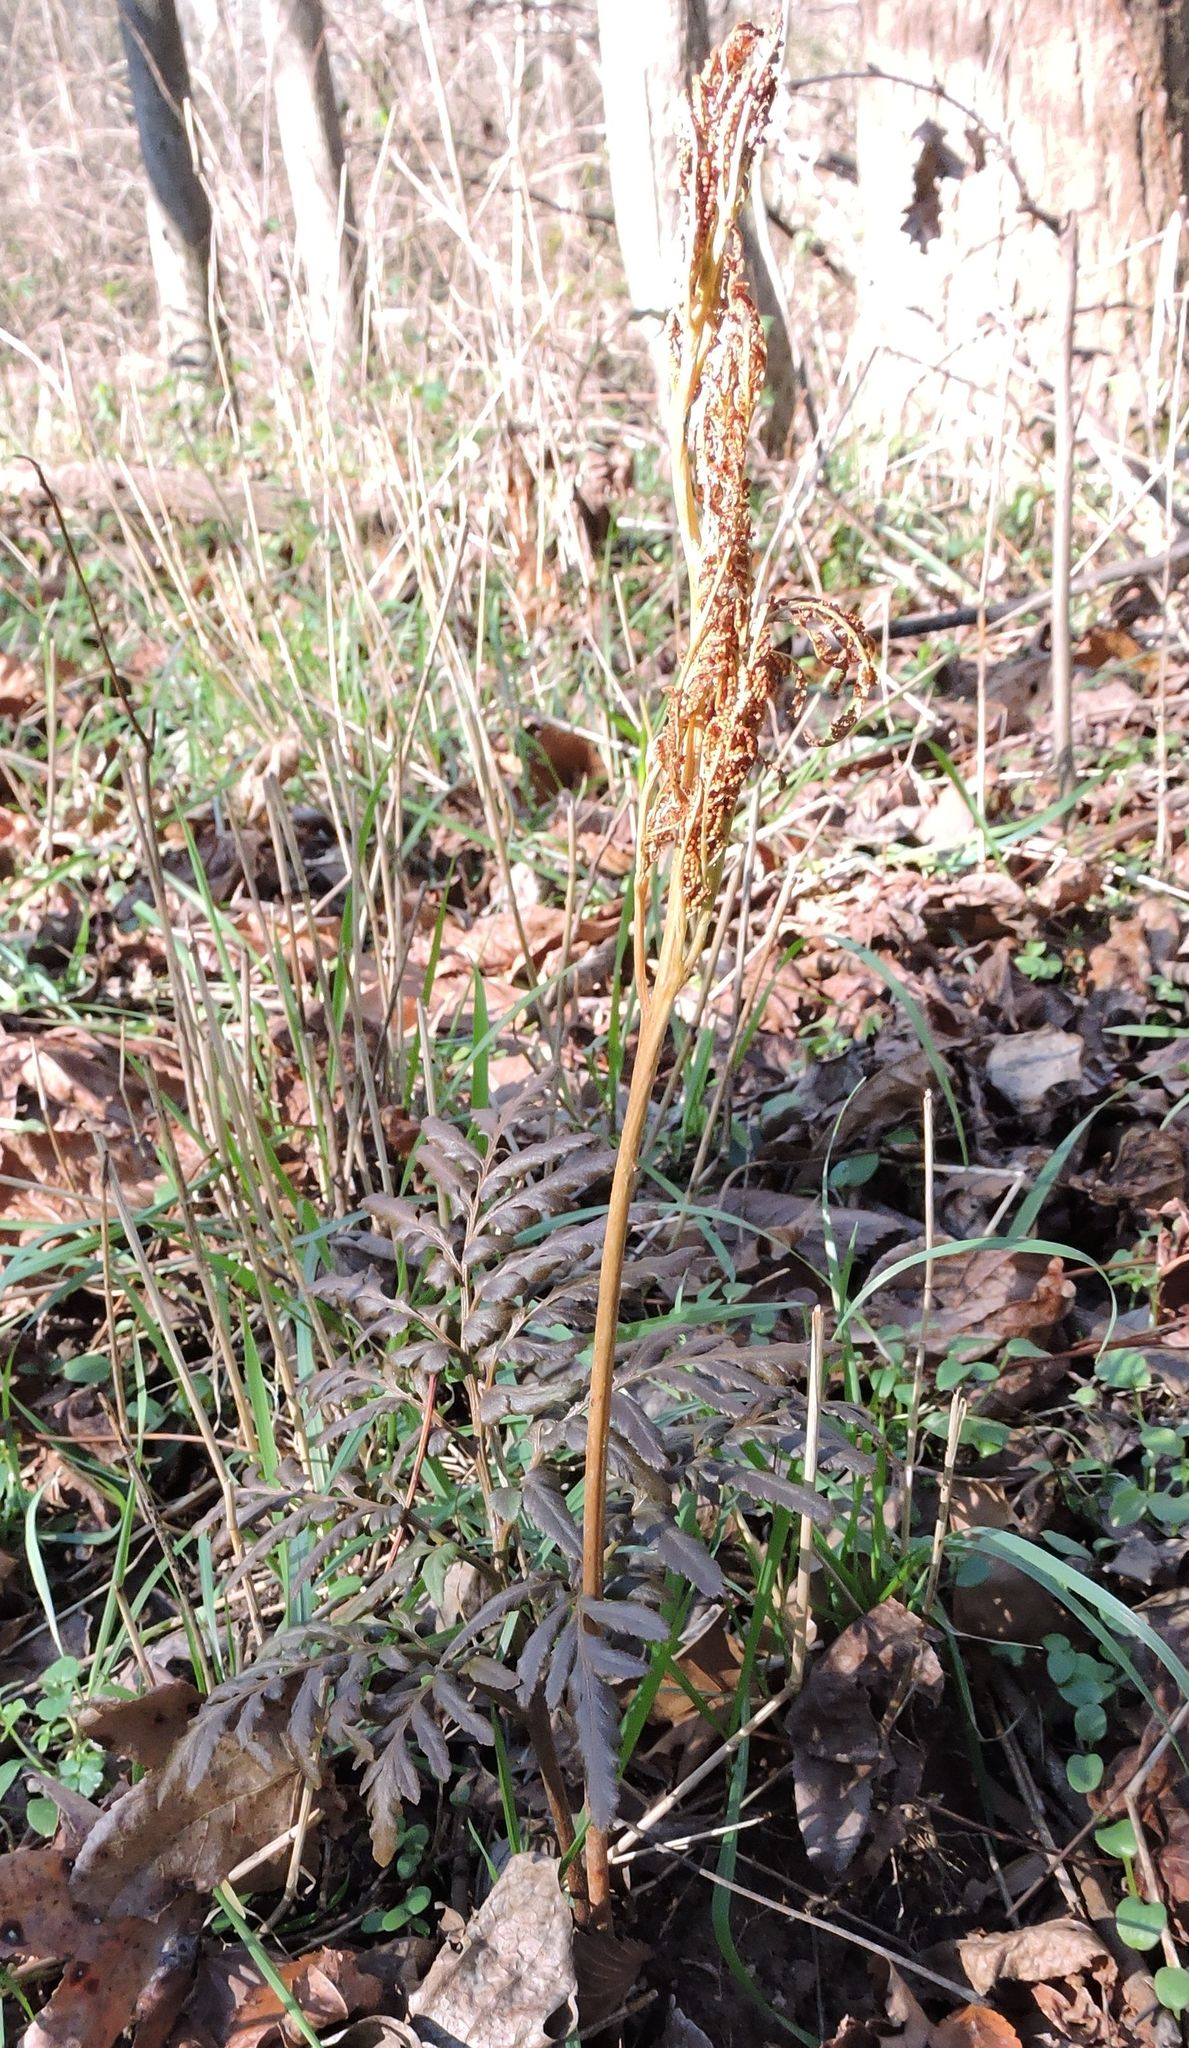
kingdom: Plantae
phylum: Tracheophyta
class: Polypodiopsida
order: Ophioglossales
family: Ophioglossaceae
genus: Sceptridium
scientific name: Sceptridium dissectum
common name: Cut-leaved grapefern
